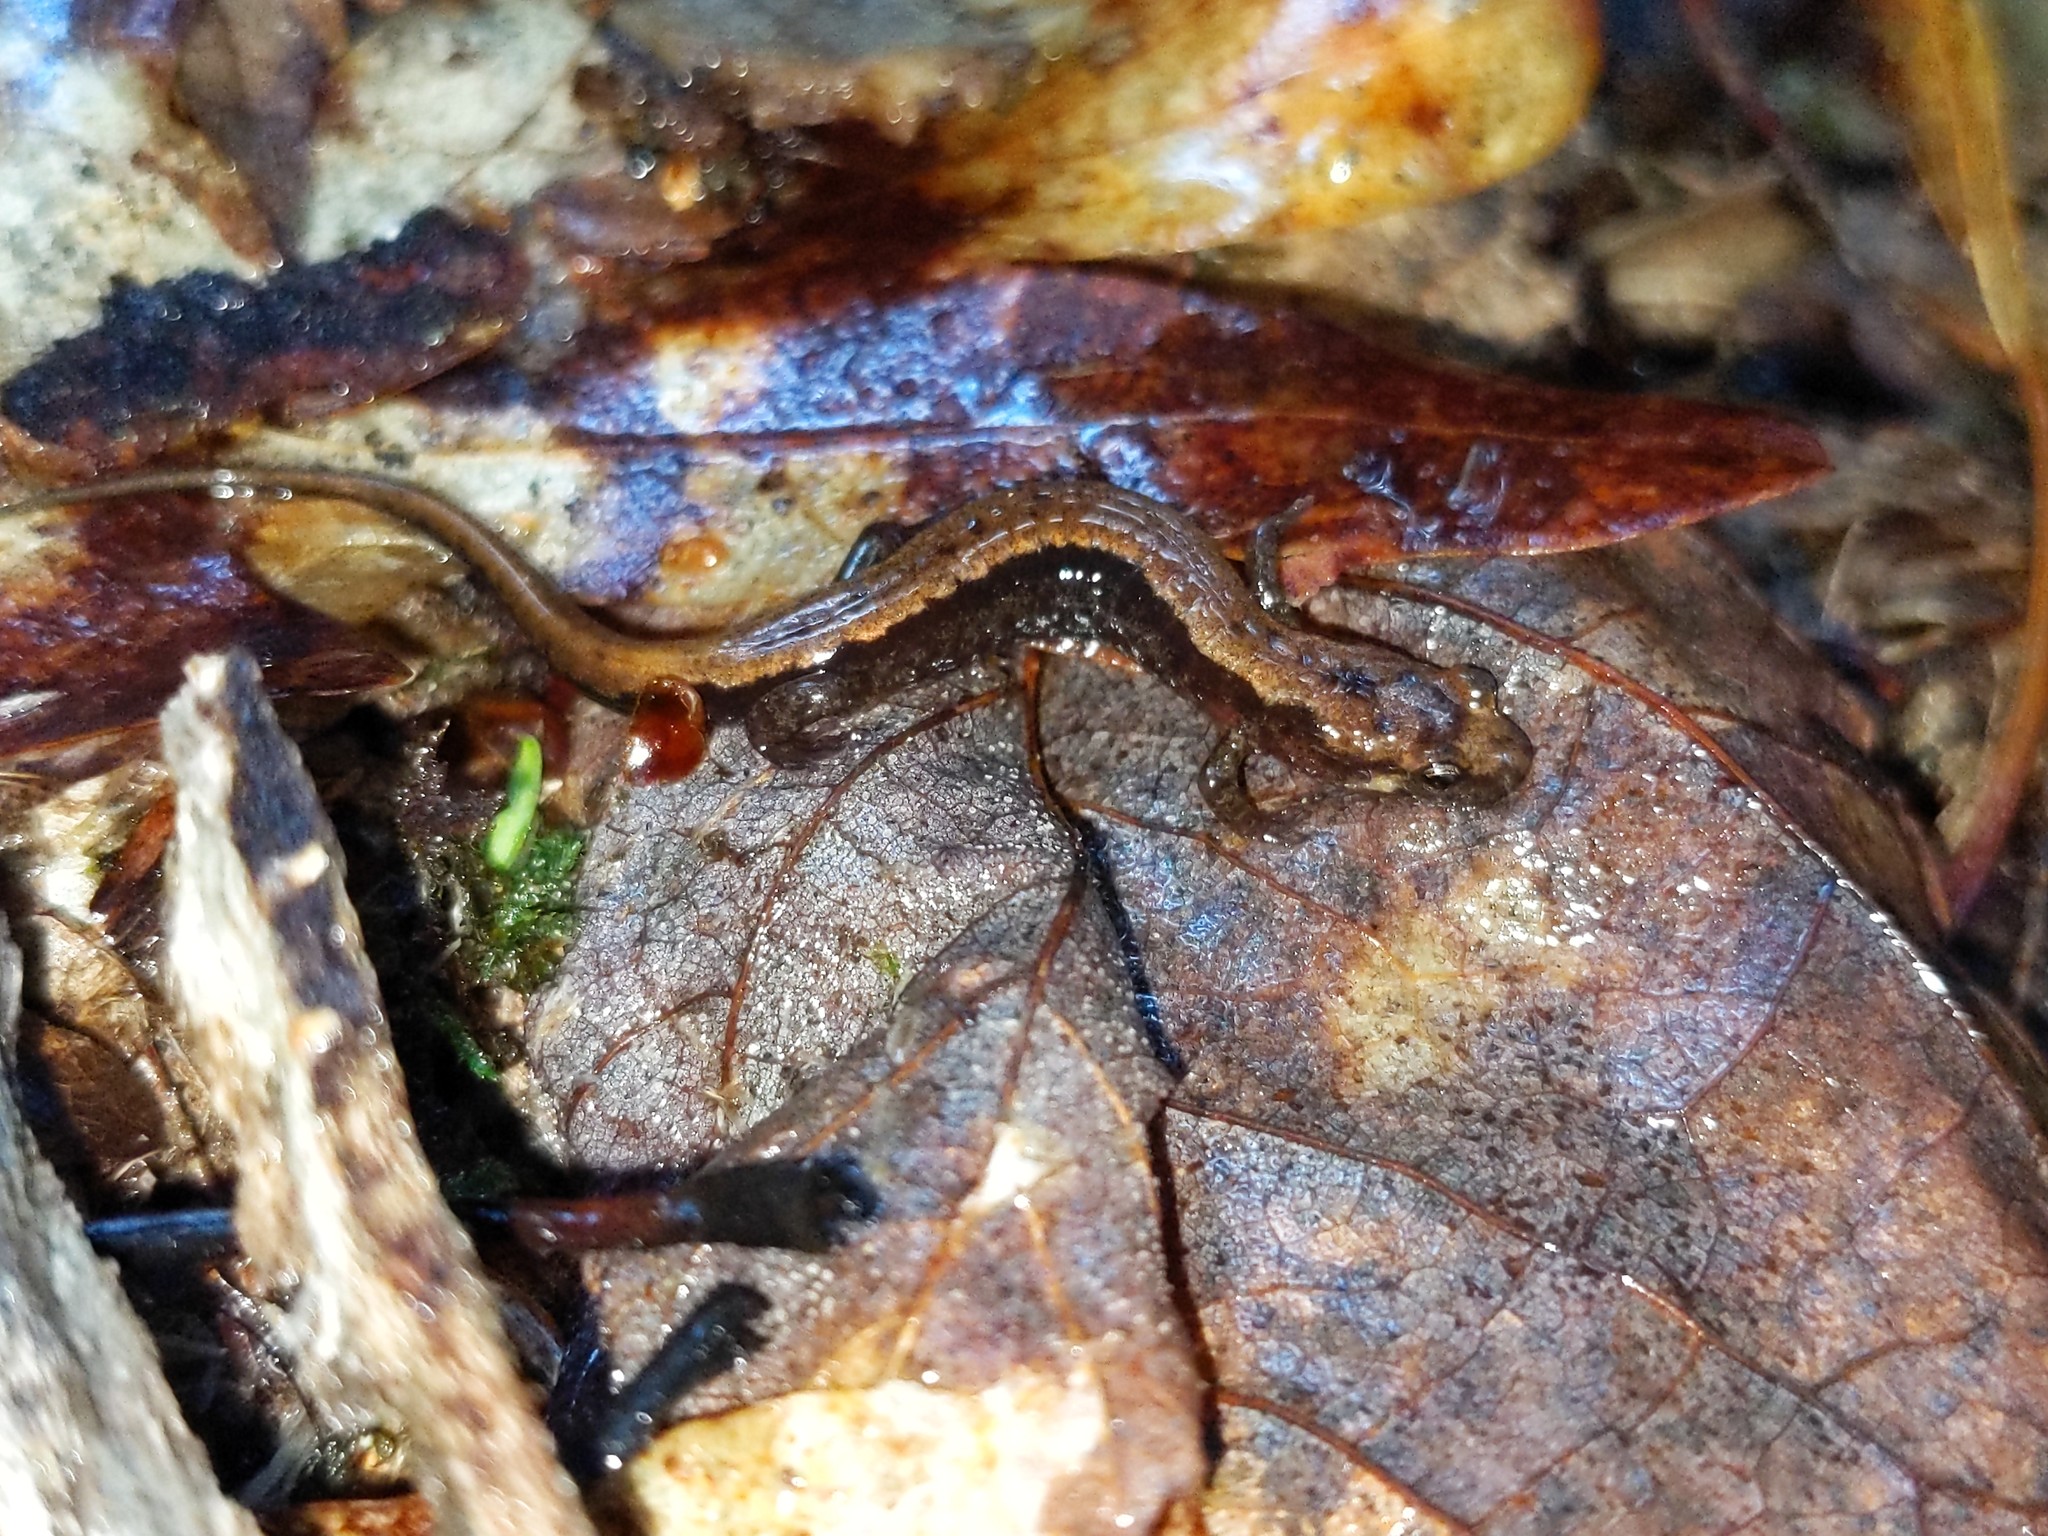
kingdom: Animalia
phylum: Chordata
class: Amphibia
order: Caudata
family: Plethodontidae
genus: Desmognathus
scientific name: Desmognathus ochrophaeus
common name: Allegheny mountain dusky salamander
